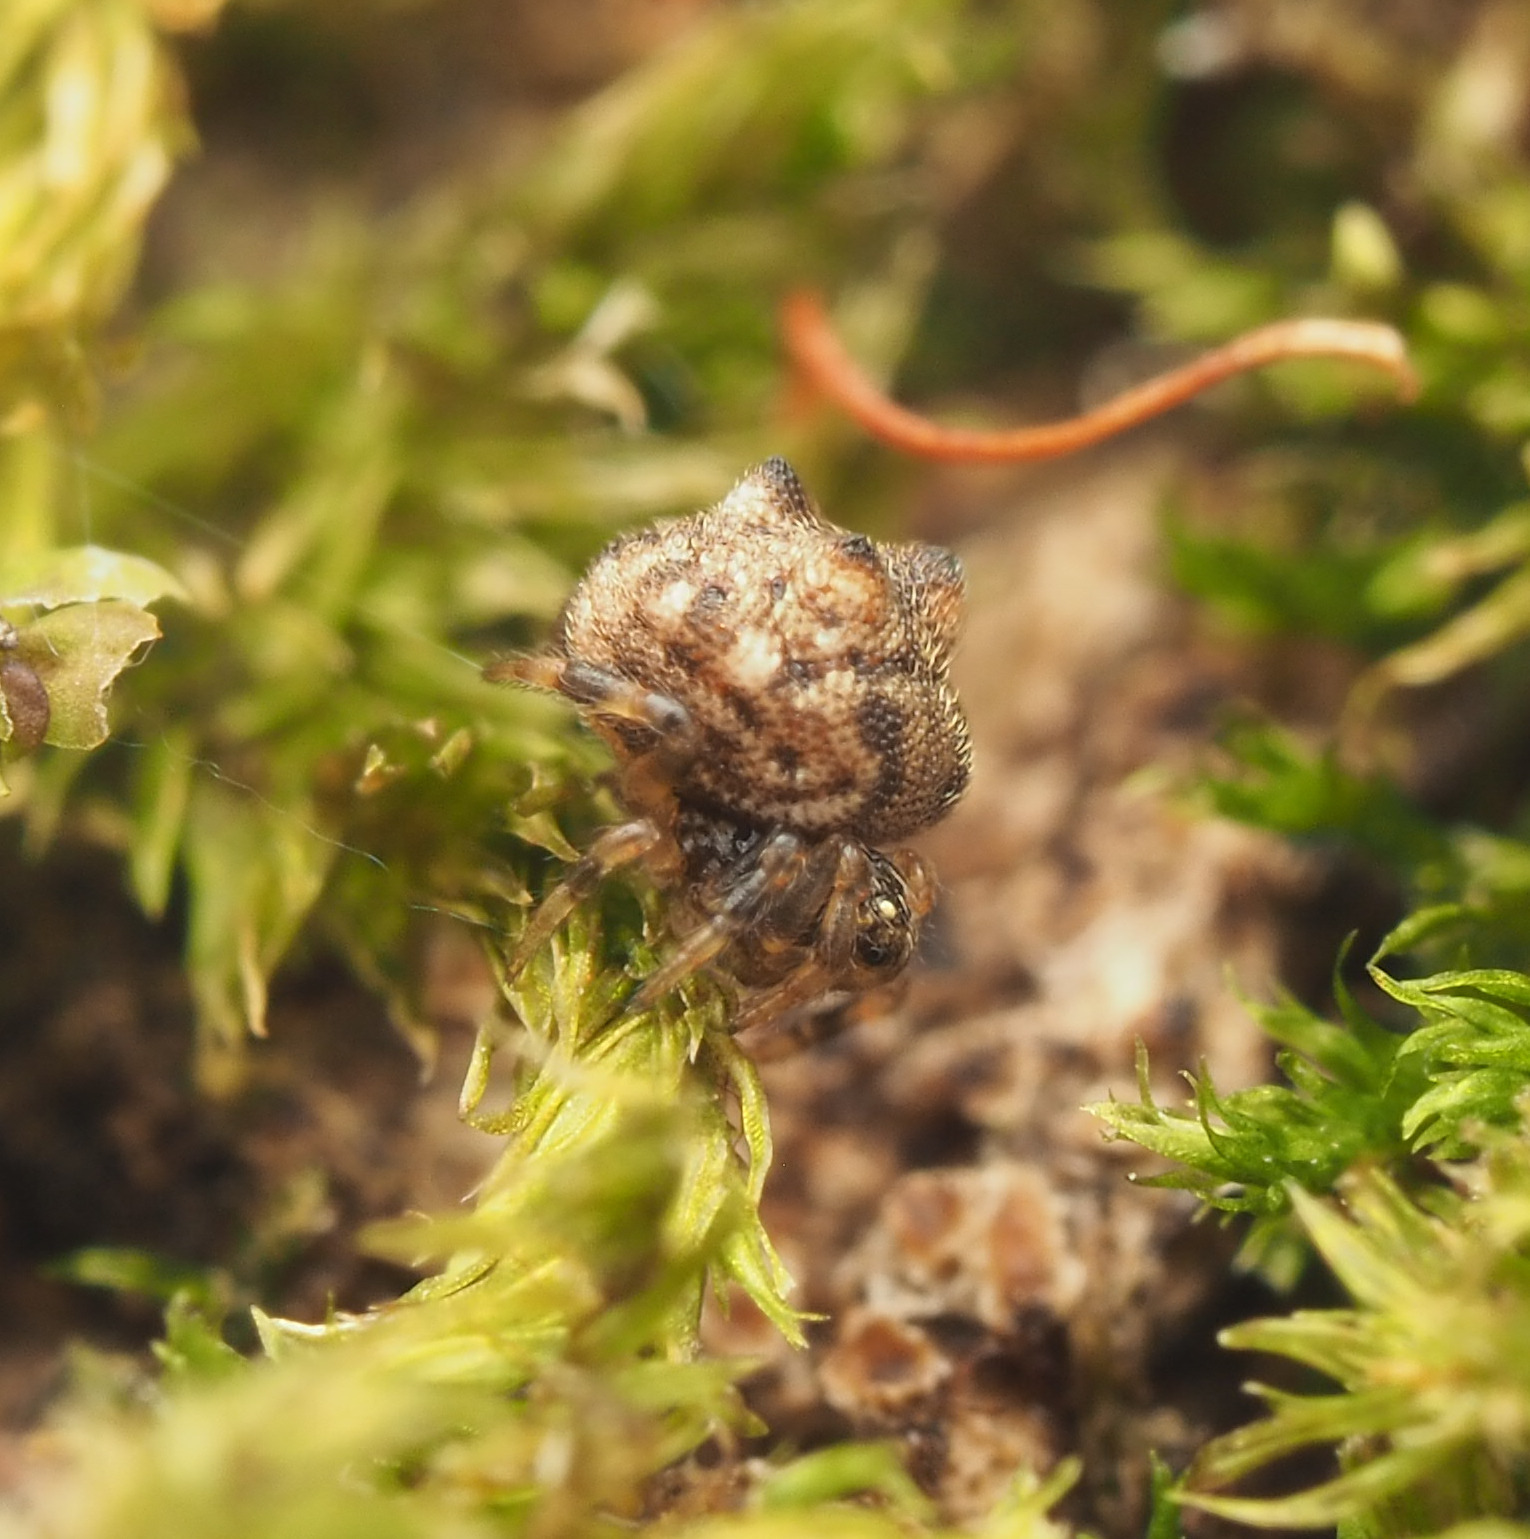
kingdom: Animalia
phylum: Arthropoda
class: Arachnida
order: Araneae
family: Theridiidae
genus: Phoroncidia
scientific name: Phoroncidia trituberculata
